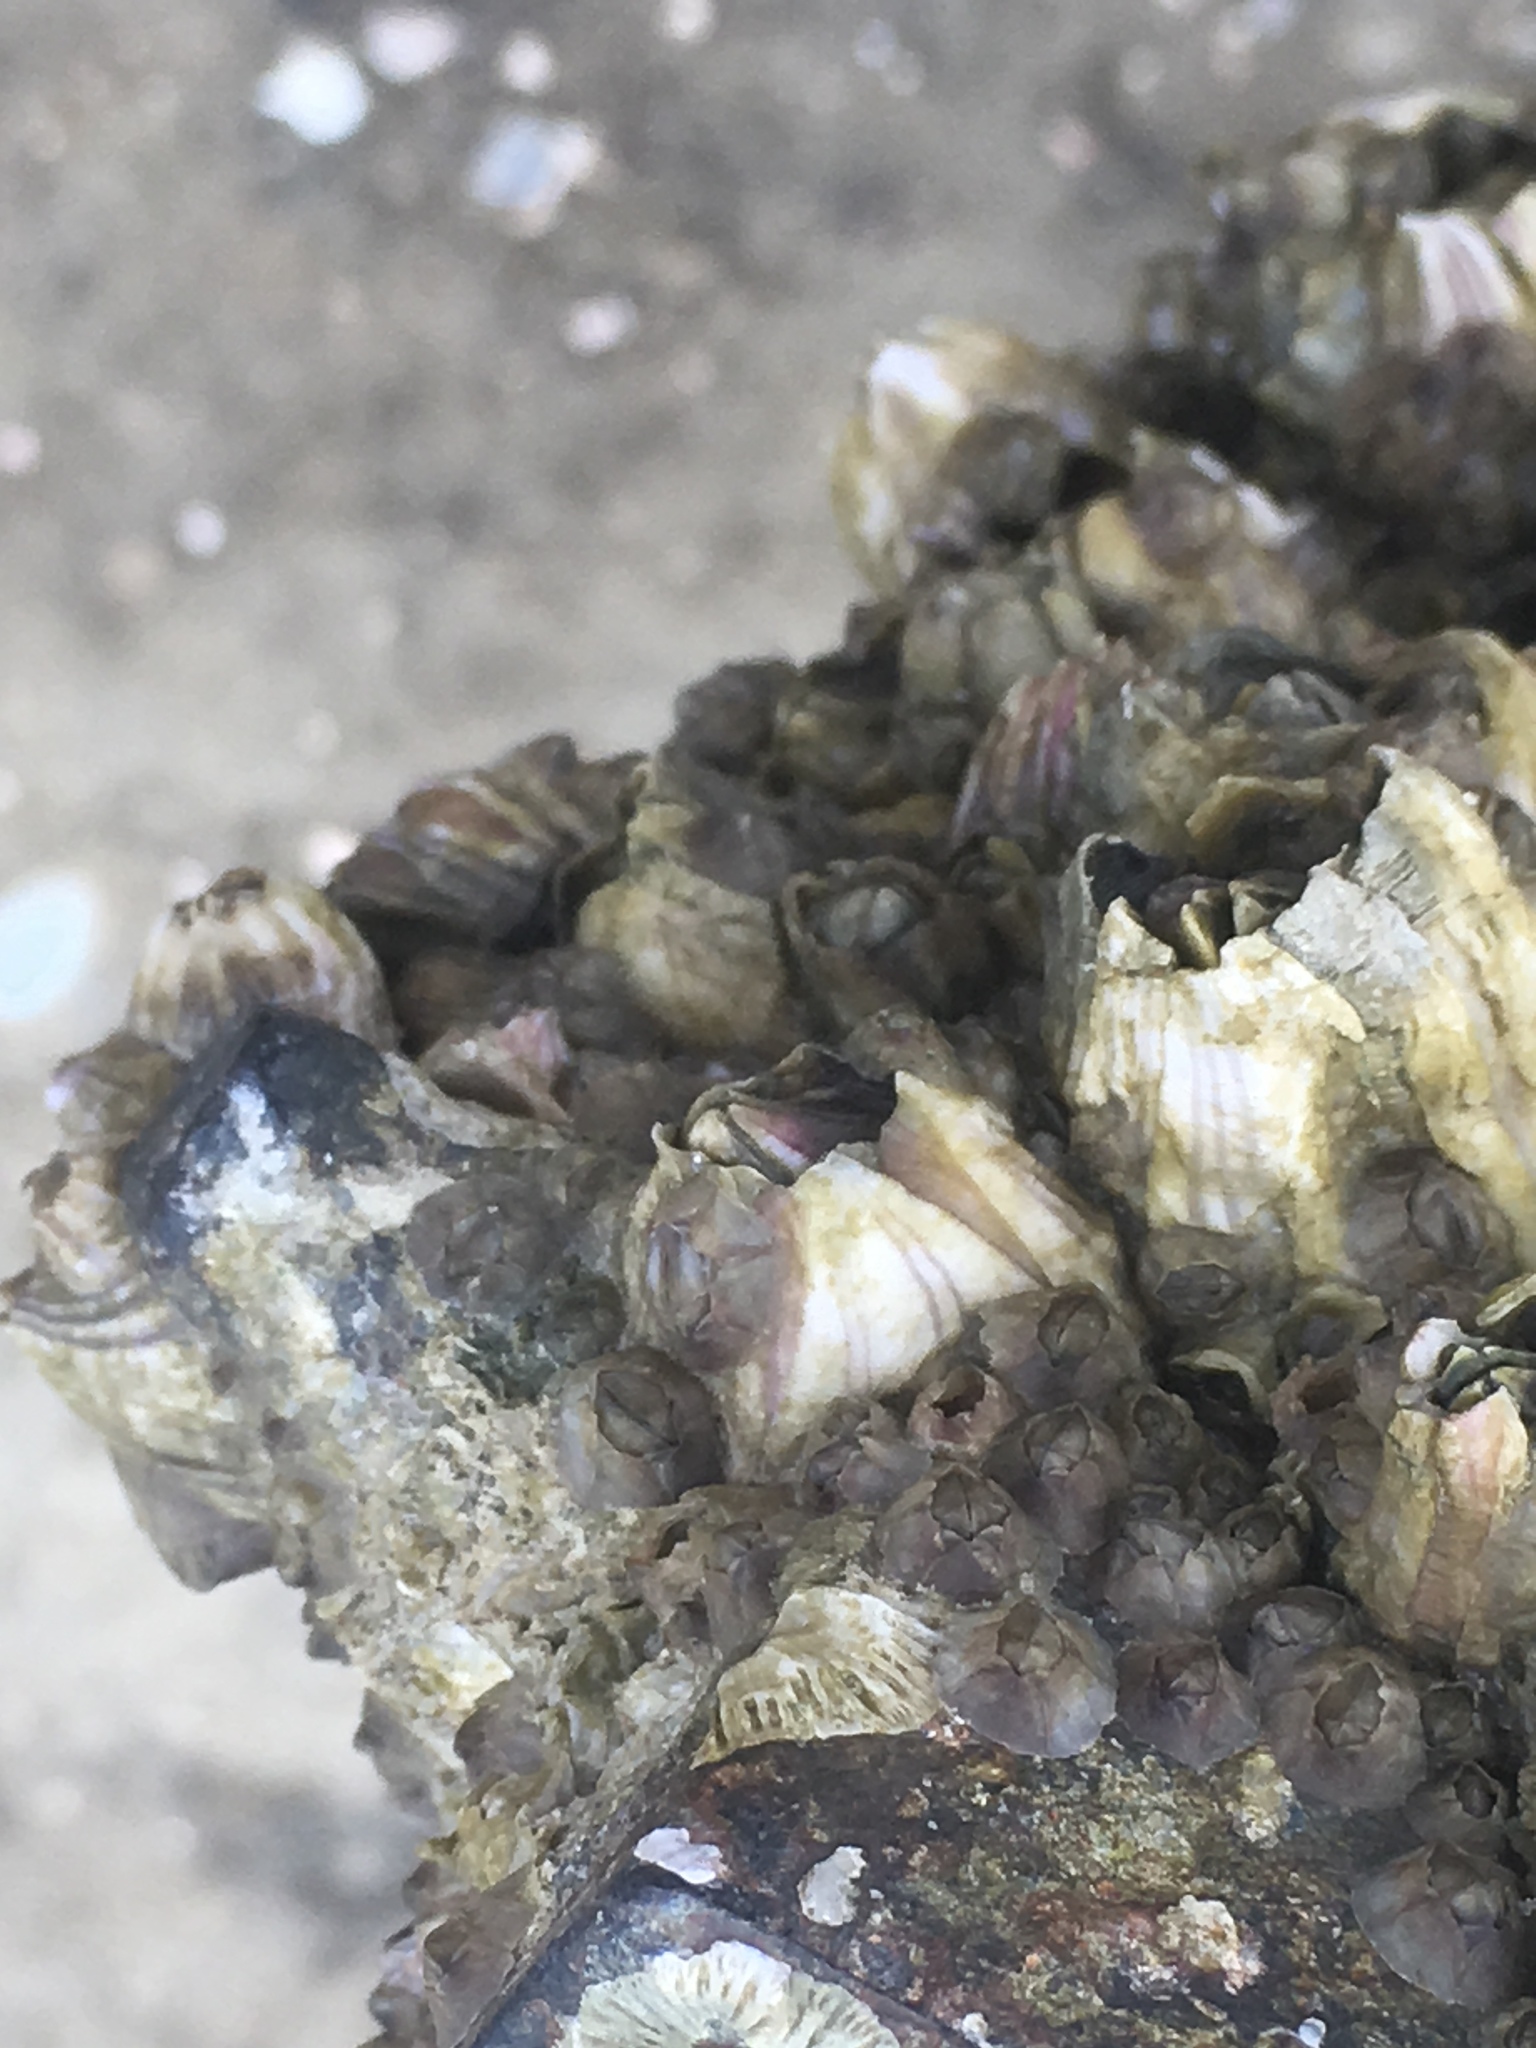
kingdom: Animalia
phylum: Arthropoda
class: Maxillopoda
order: Sessilia
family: Balanidae
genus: Amphibalanus
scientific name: Amphibalanus amphitrite
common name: Striped acorn barnacle
